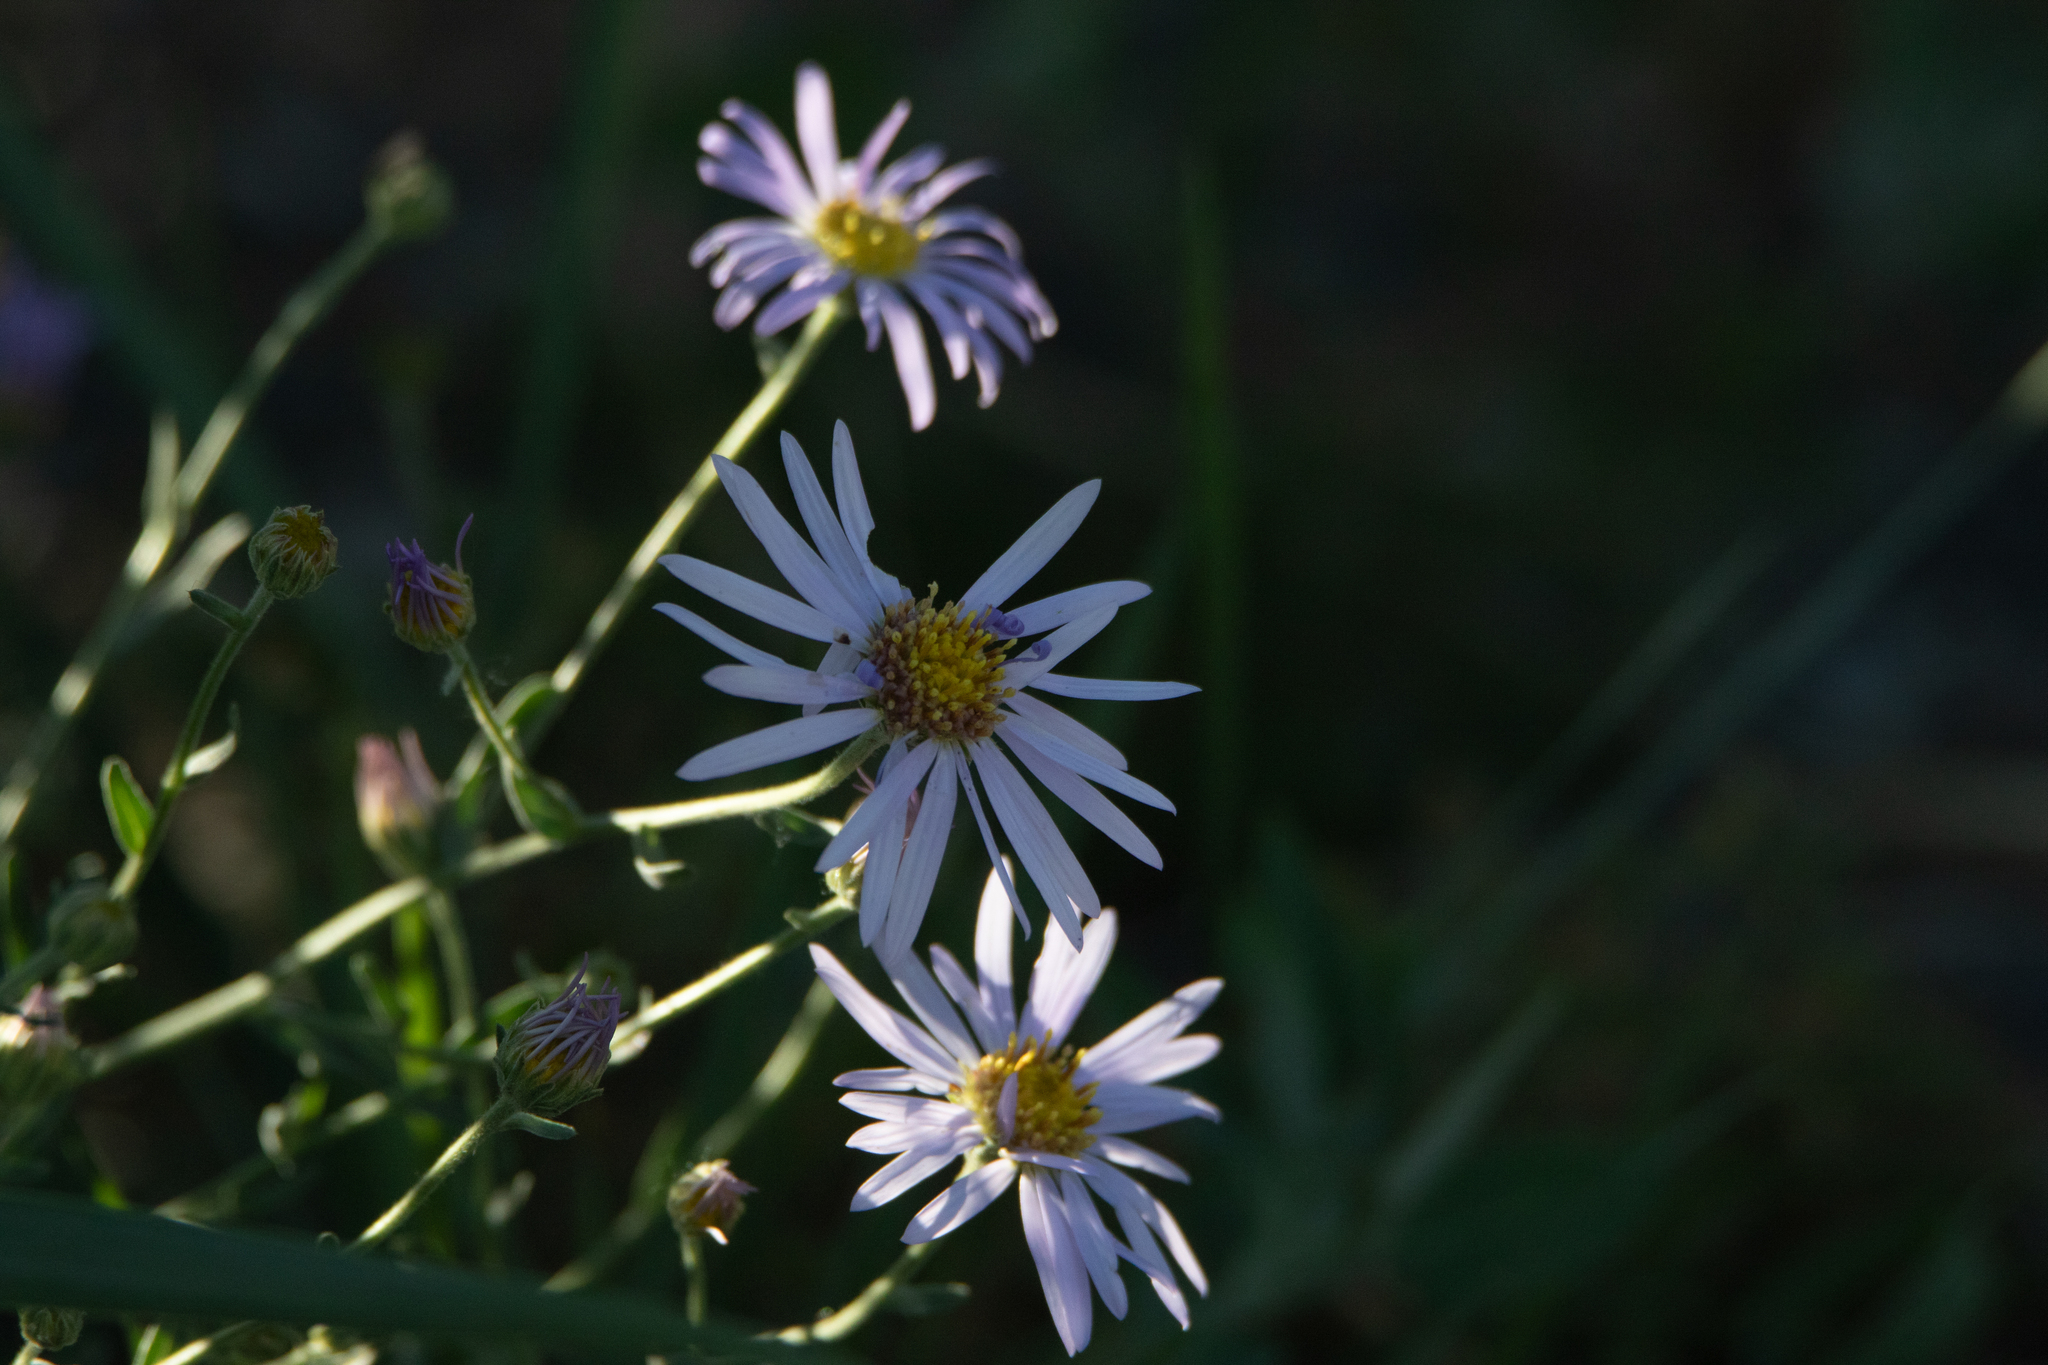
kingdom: Plantae
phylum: Tracheophyta
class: Magnoliopsida
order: Asterales
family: Asteraceae
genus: Heteropappus
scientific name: Heteropappus altaicus
